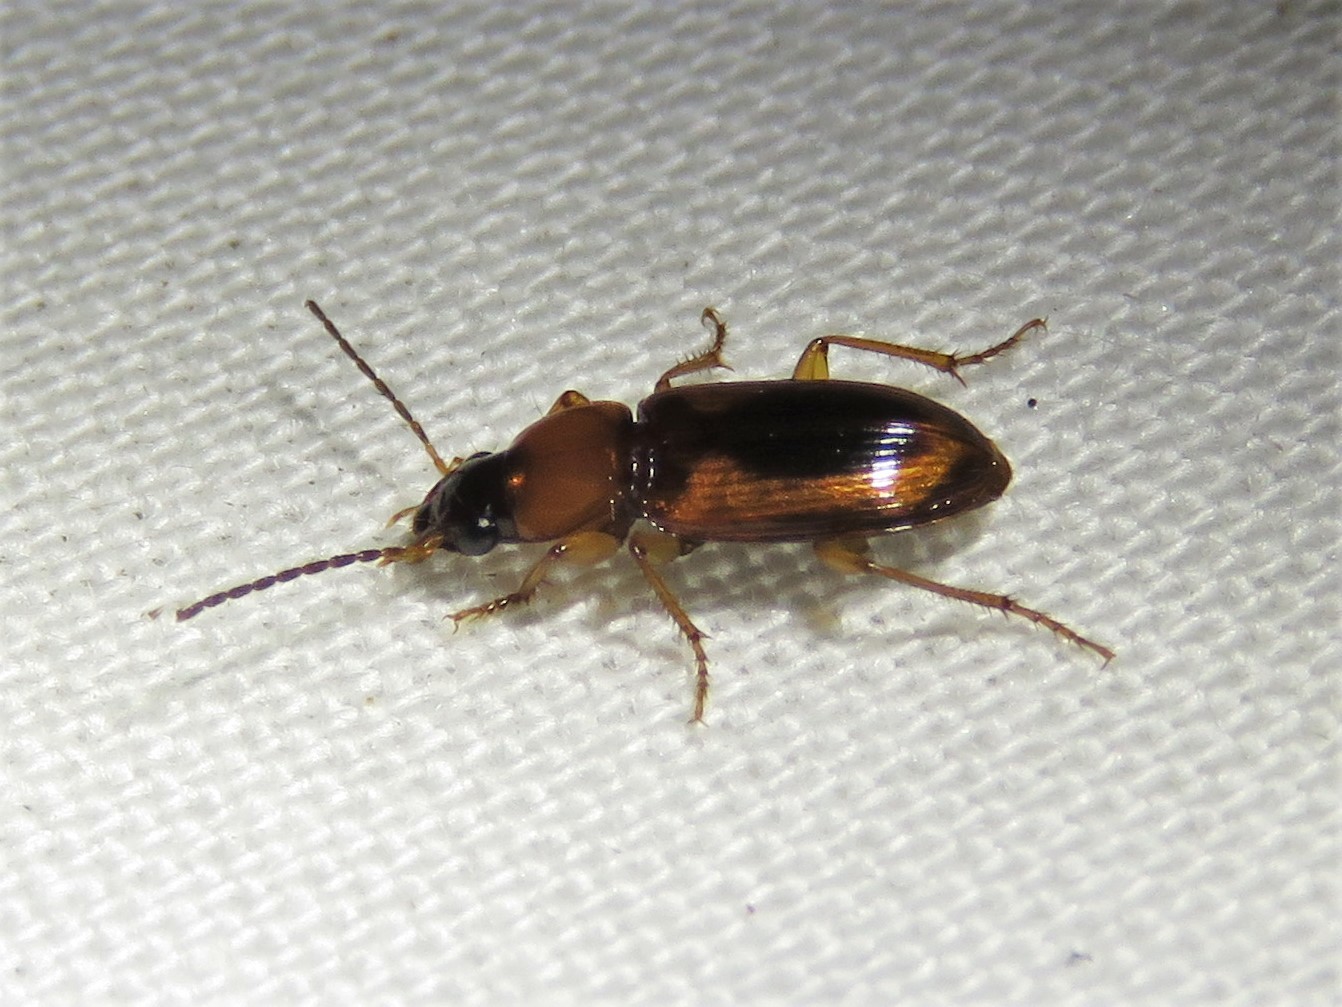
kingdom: Animalia
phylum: Arthropoda
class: Insecta
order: Coleoptera
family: Carabidae
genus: Stenolophus
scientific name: Stenolophus dissimilis
